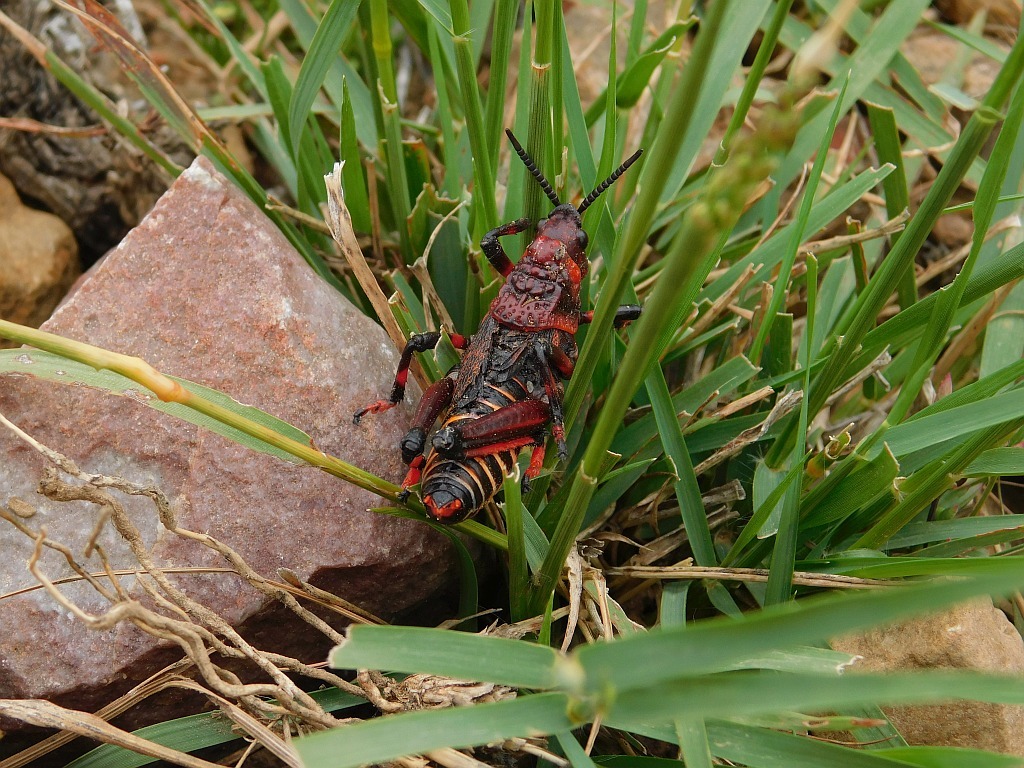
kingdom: Animalia
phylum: Arthropoda
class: Insecta
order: Orthoptera
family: Pyrgomorphidae
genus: Dictyophorus
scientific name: Dictyophorus spumans
